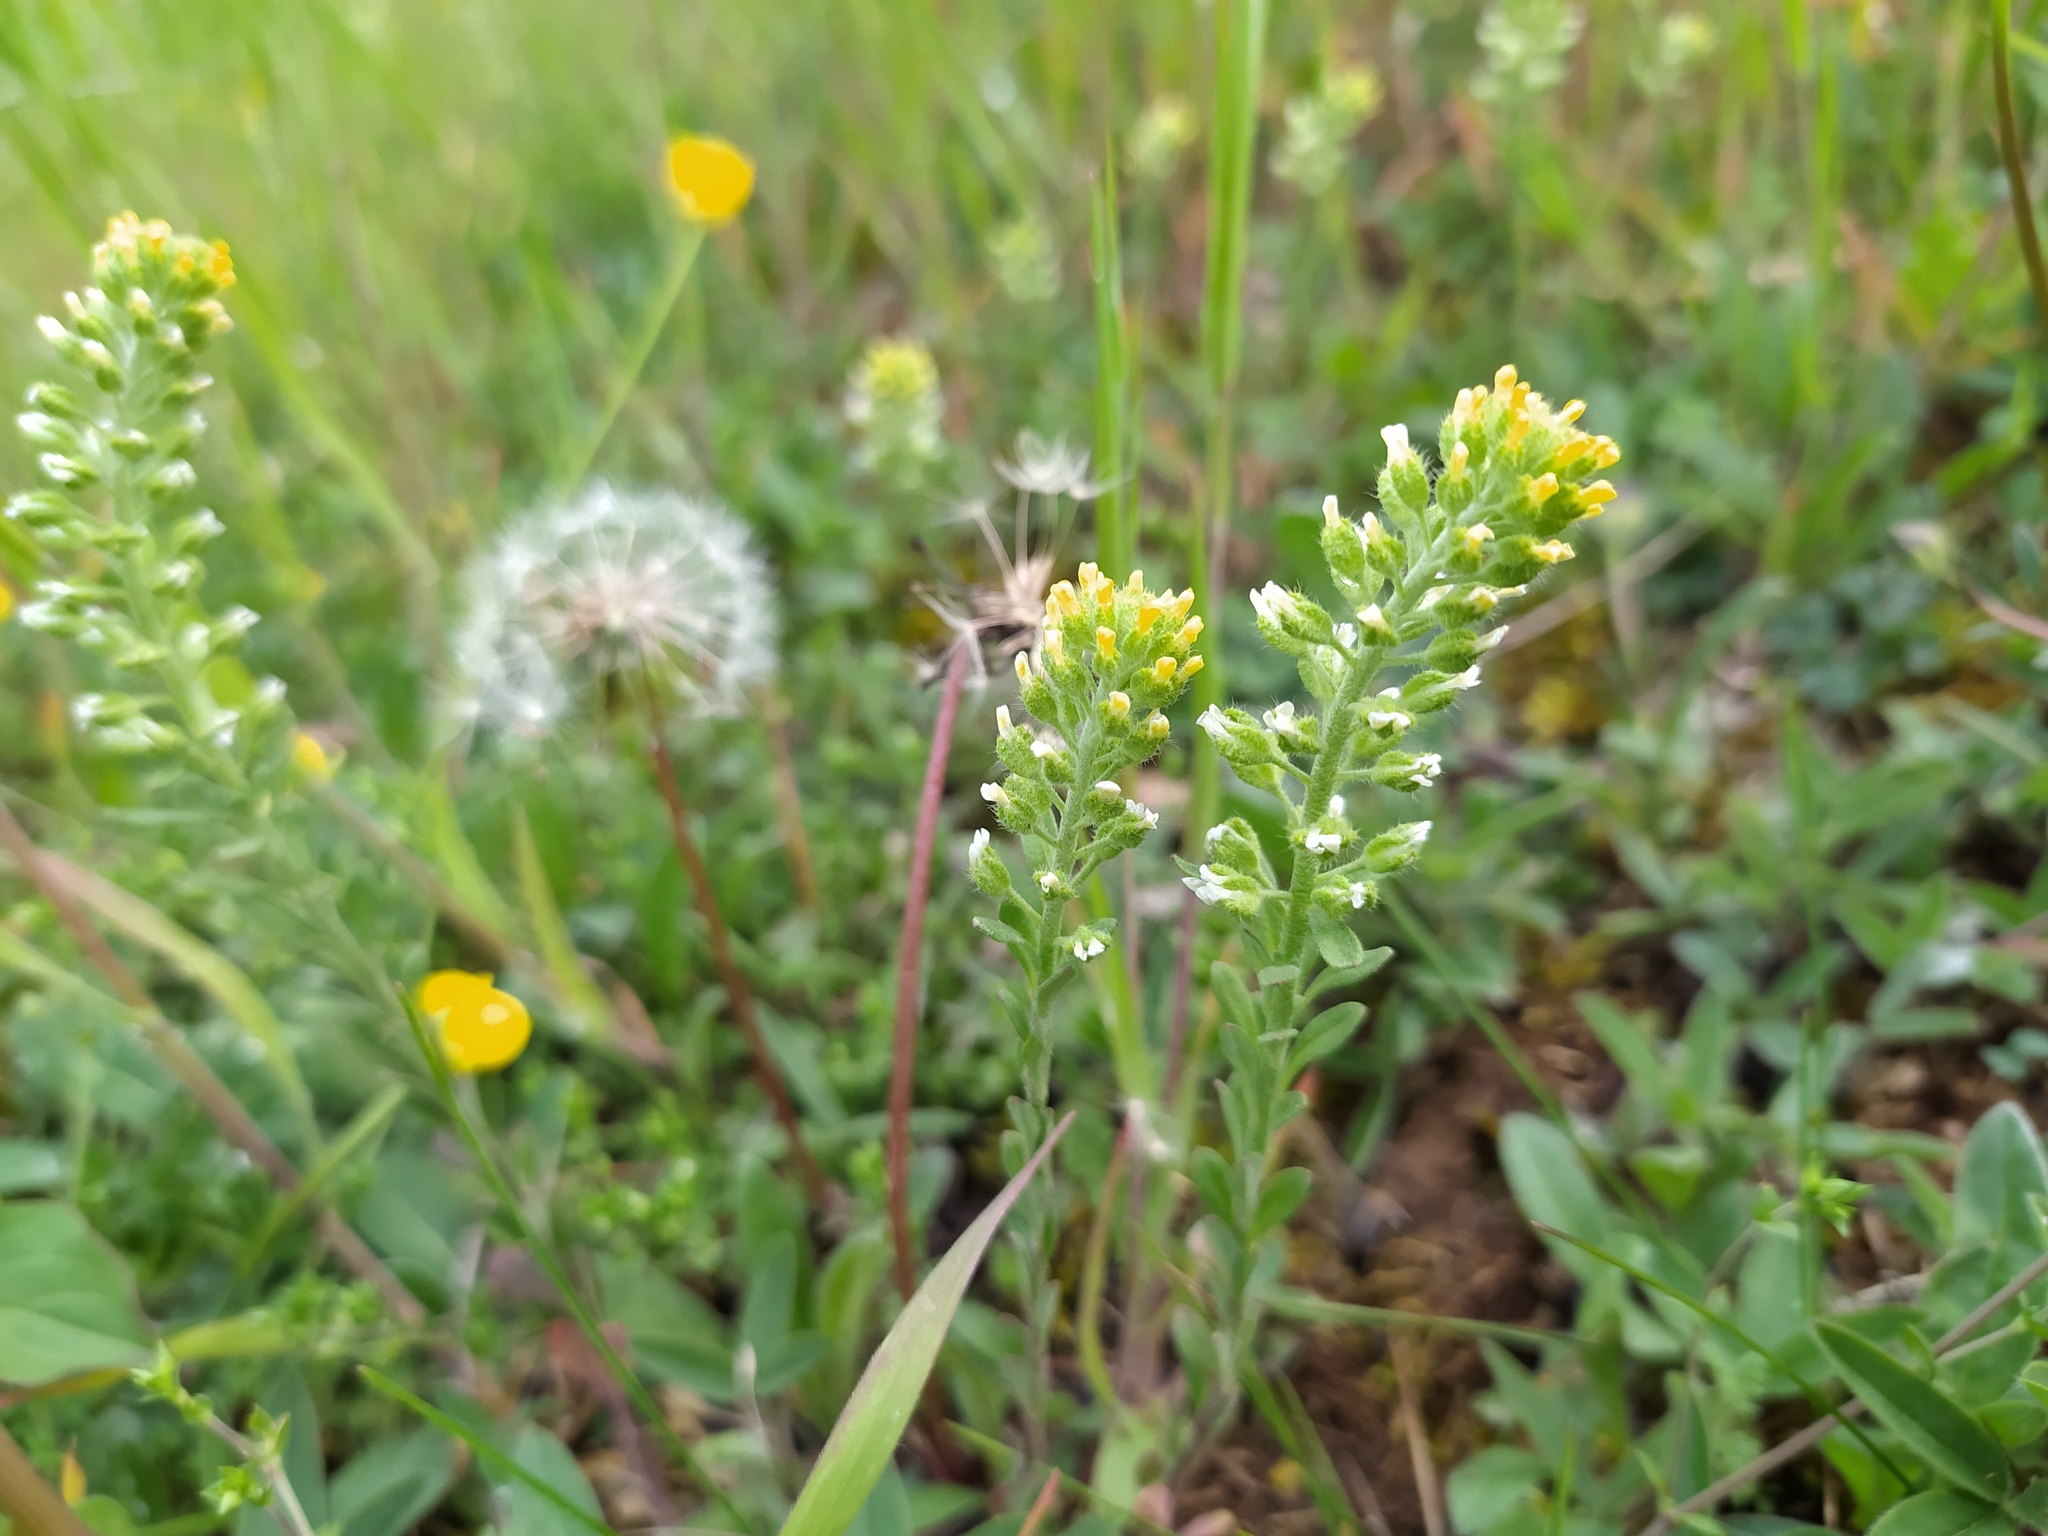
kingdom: Plantae
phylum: Tracheophyta
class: Magnoliopsida
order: Brassicales
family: Brassicaceae
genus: Alyssum
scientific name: Alyssum alyssoides
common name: Small alison
